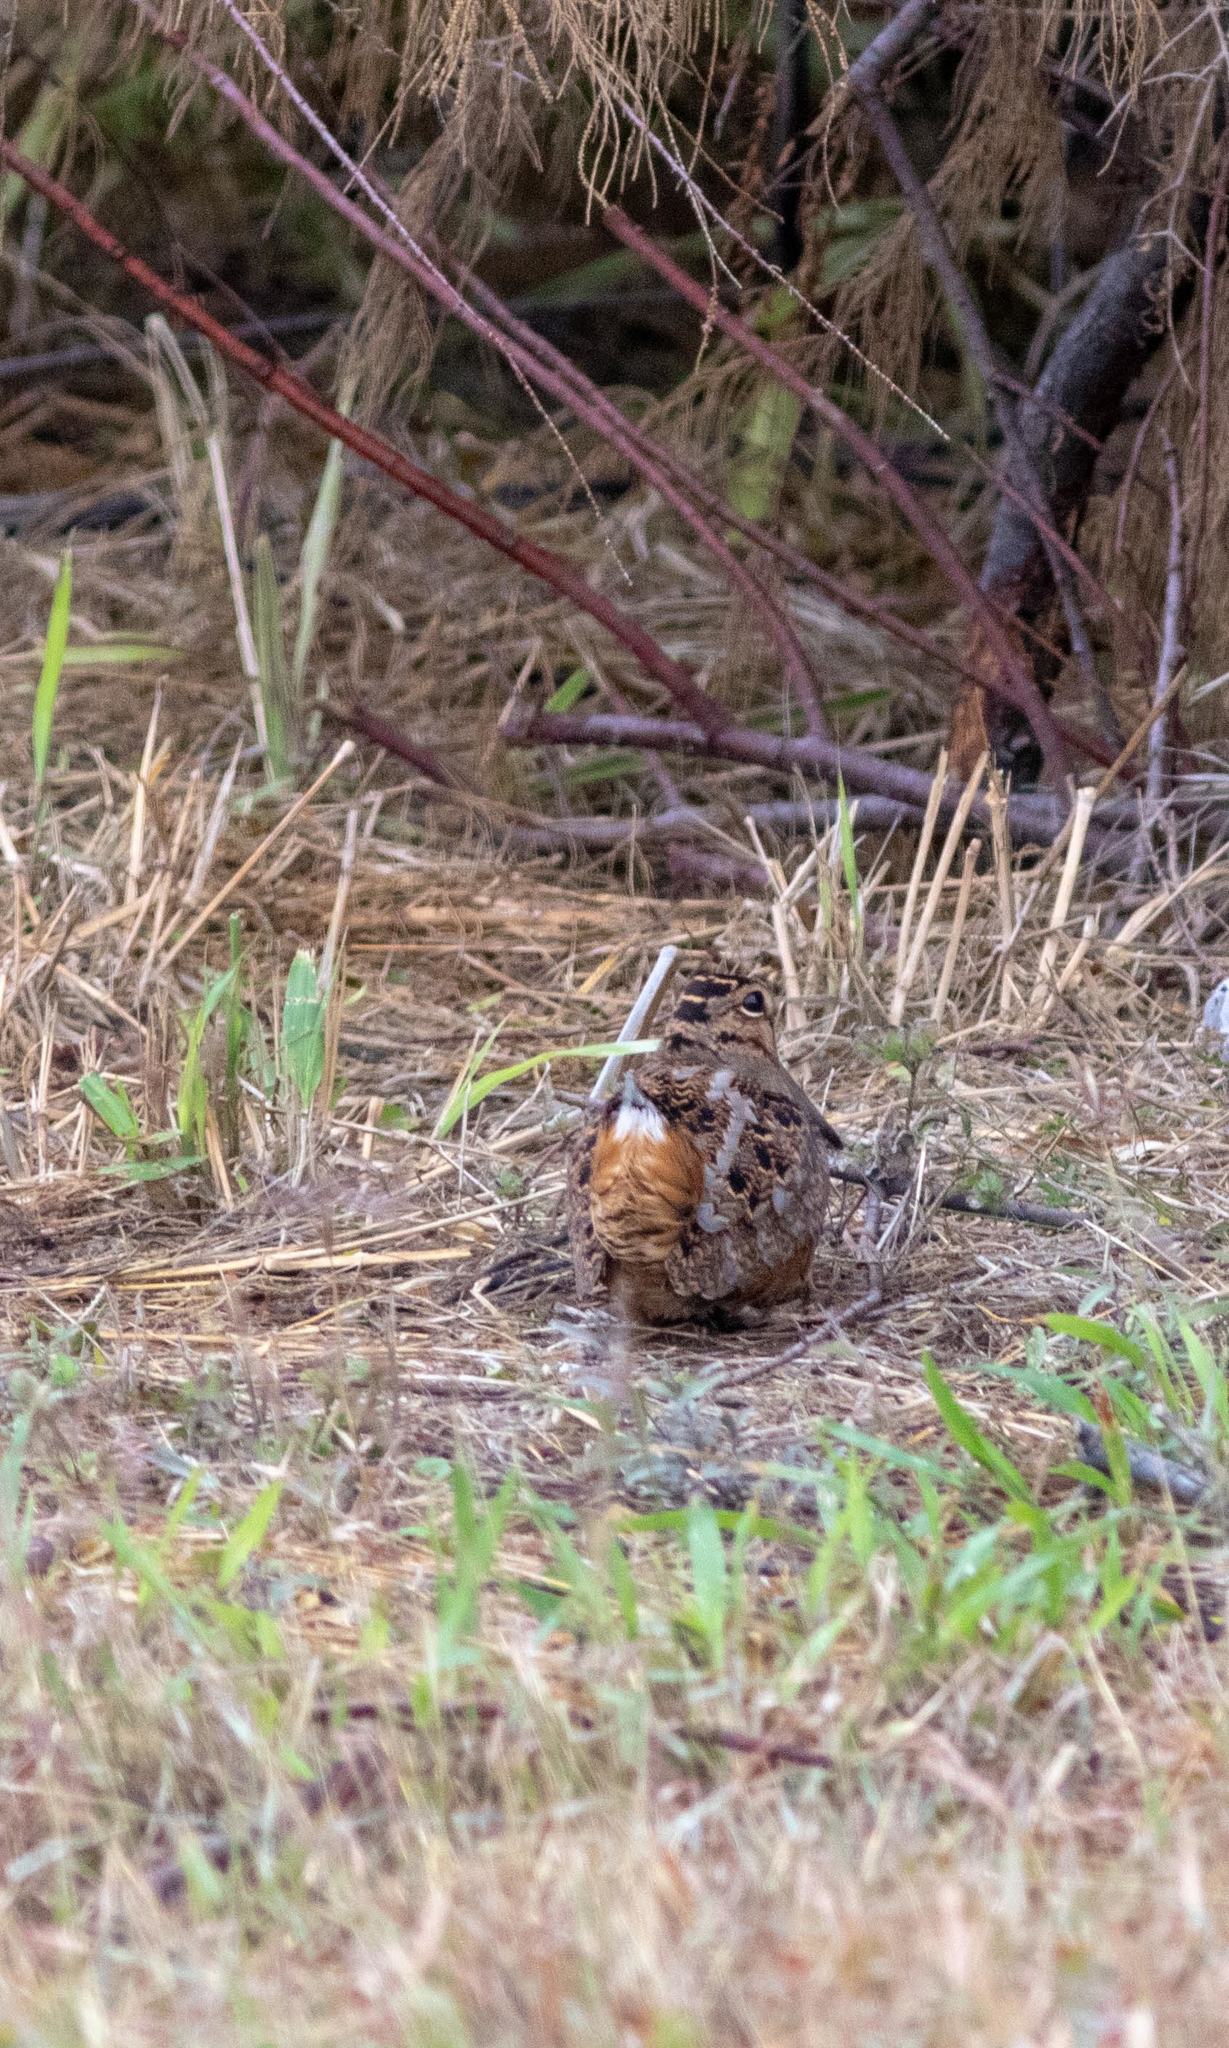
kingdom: Animalia
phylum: Chordata
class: Aves
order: Charadriiformes
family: Scolopacidae
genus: Scolopax
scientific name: Scolopax minor
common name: American woodcock
